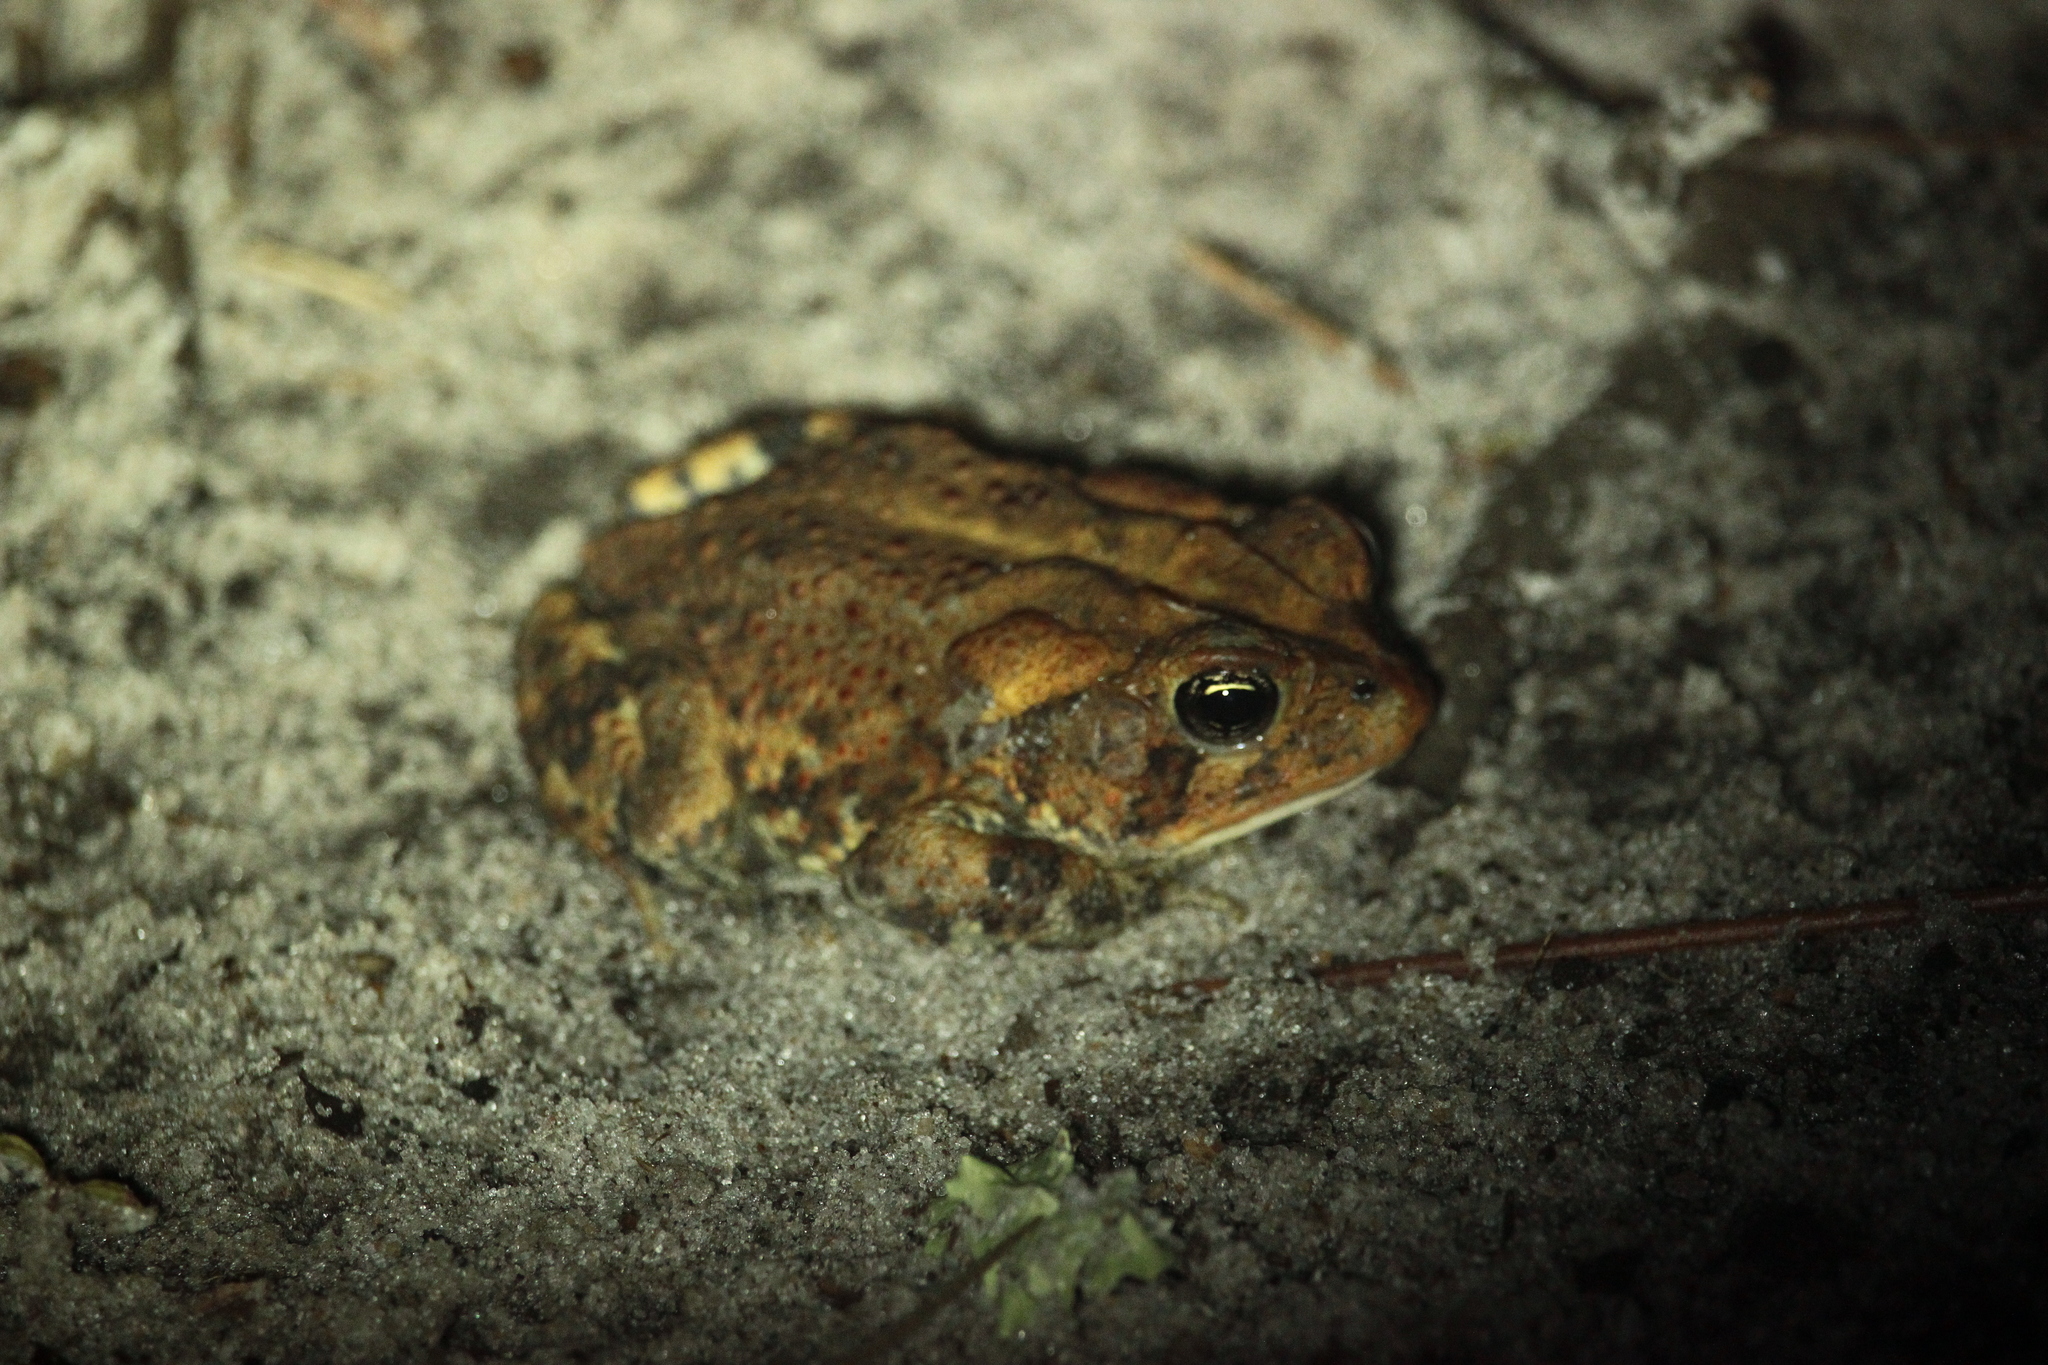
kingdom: Animalia
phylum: Chordata
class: Amphibia
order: Anura
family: Bufonidae
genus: Anaxyrus
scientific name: Anaxyrus terrestris
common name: Southern toad
